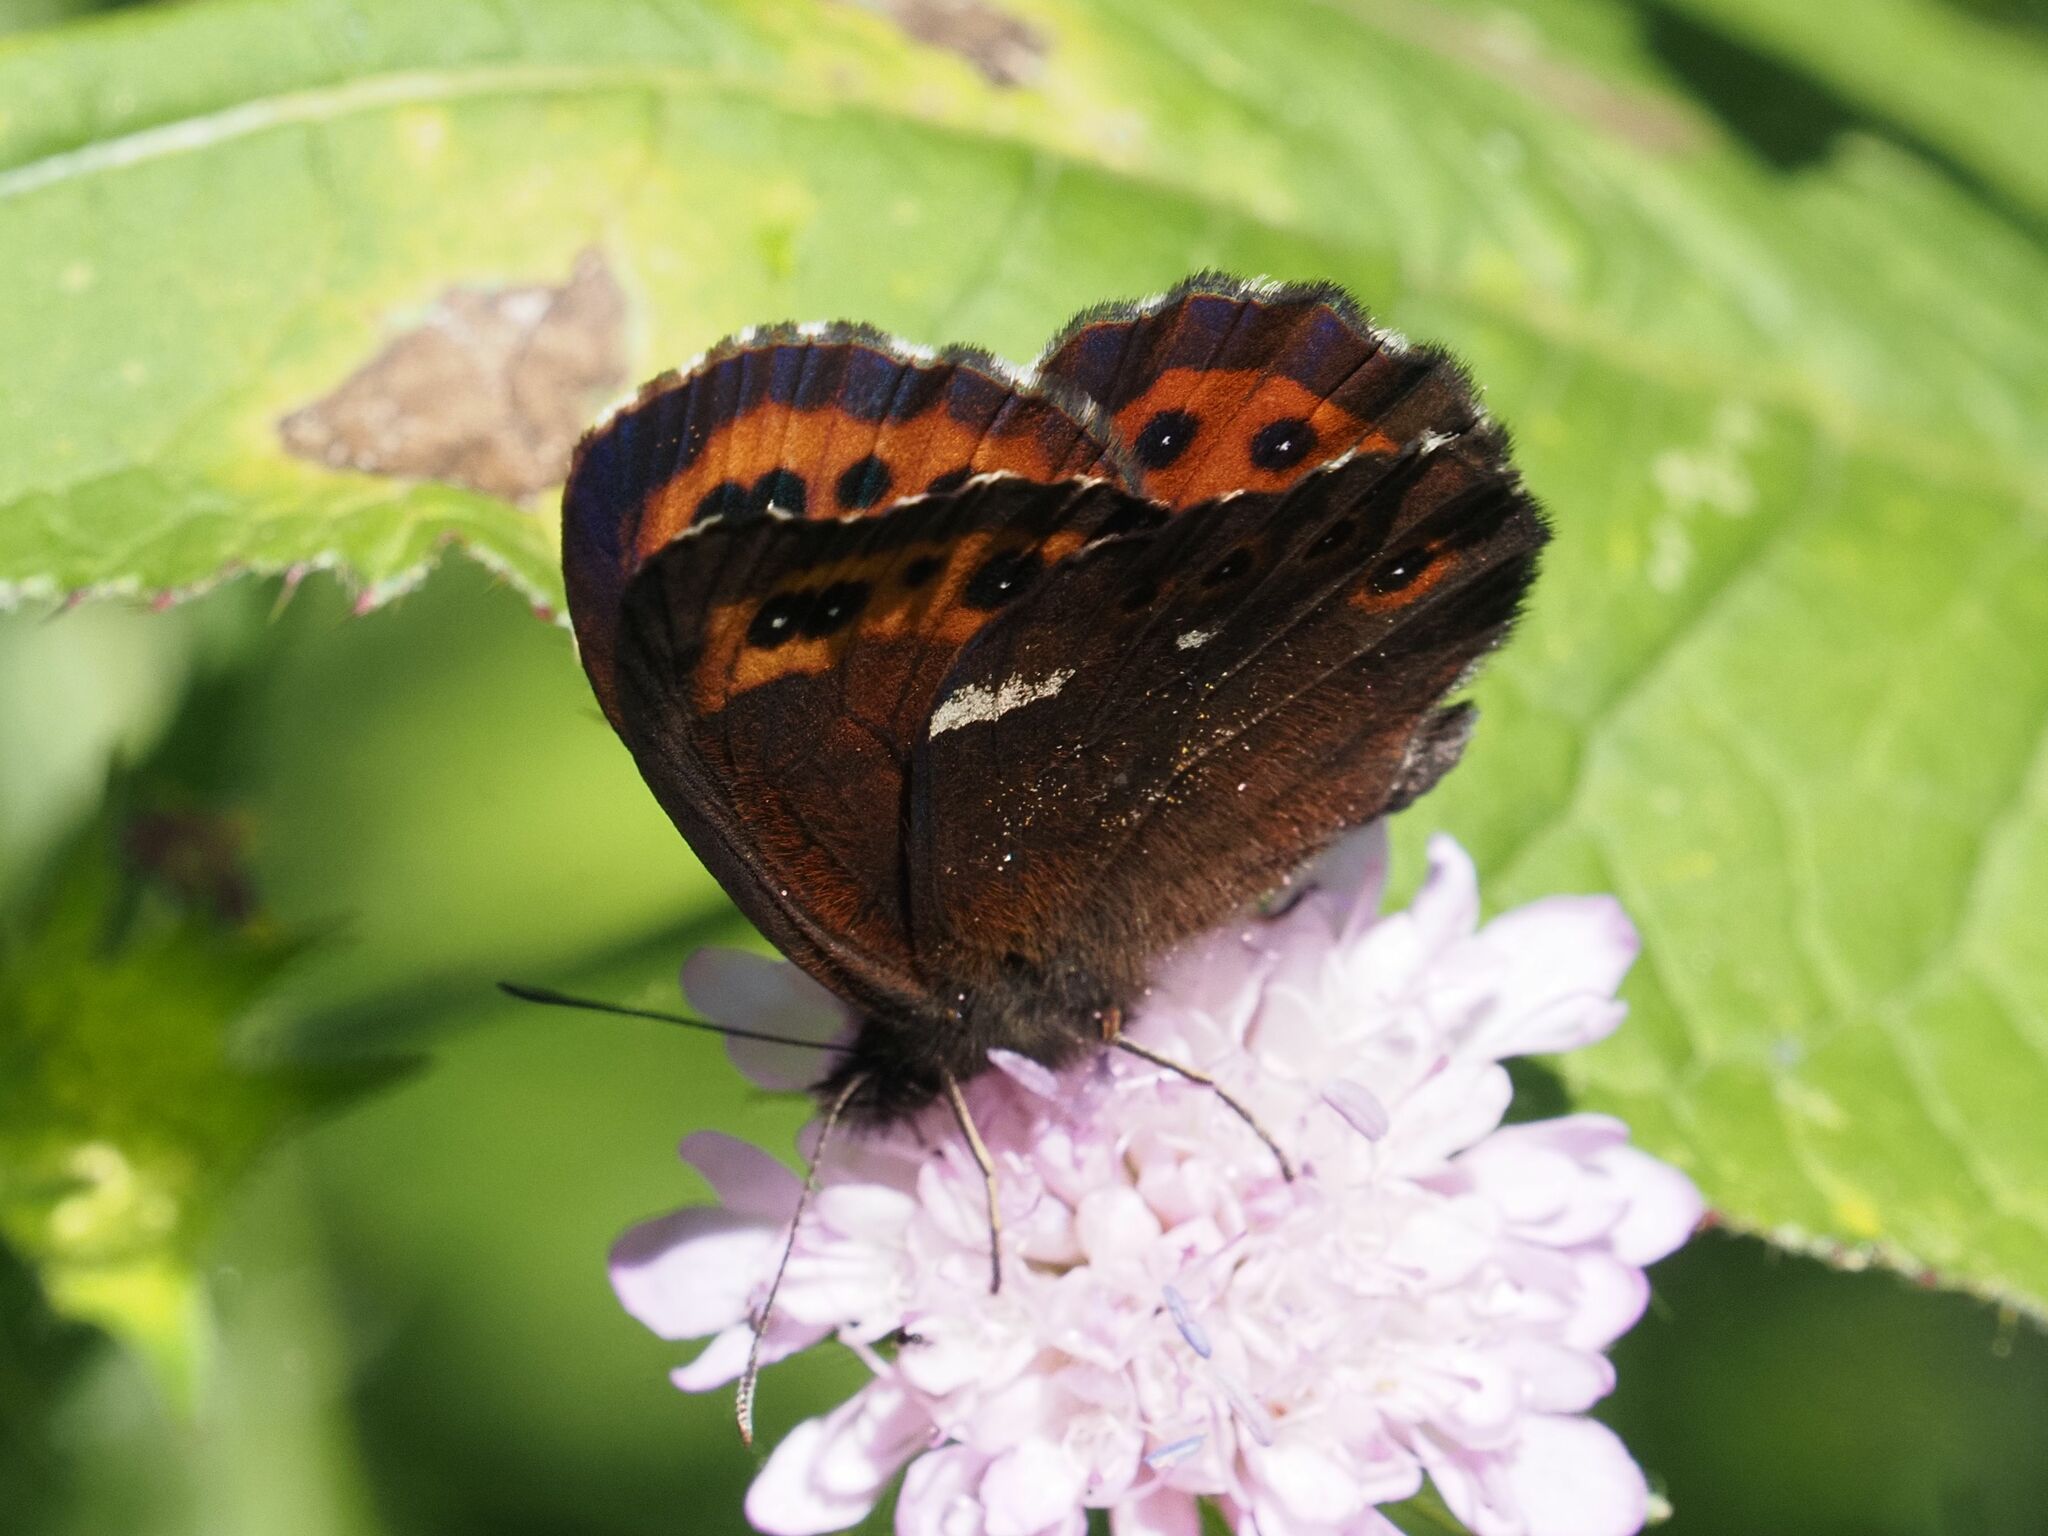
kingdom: Animalia
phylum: Arthropoda
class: Insecta
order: Lepidoptera
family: Nymphalidae
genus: Erebia
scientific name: Erebia ligea
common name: Arran brown
